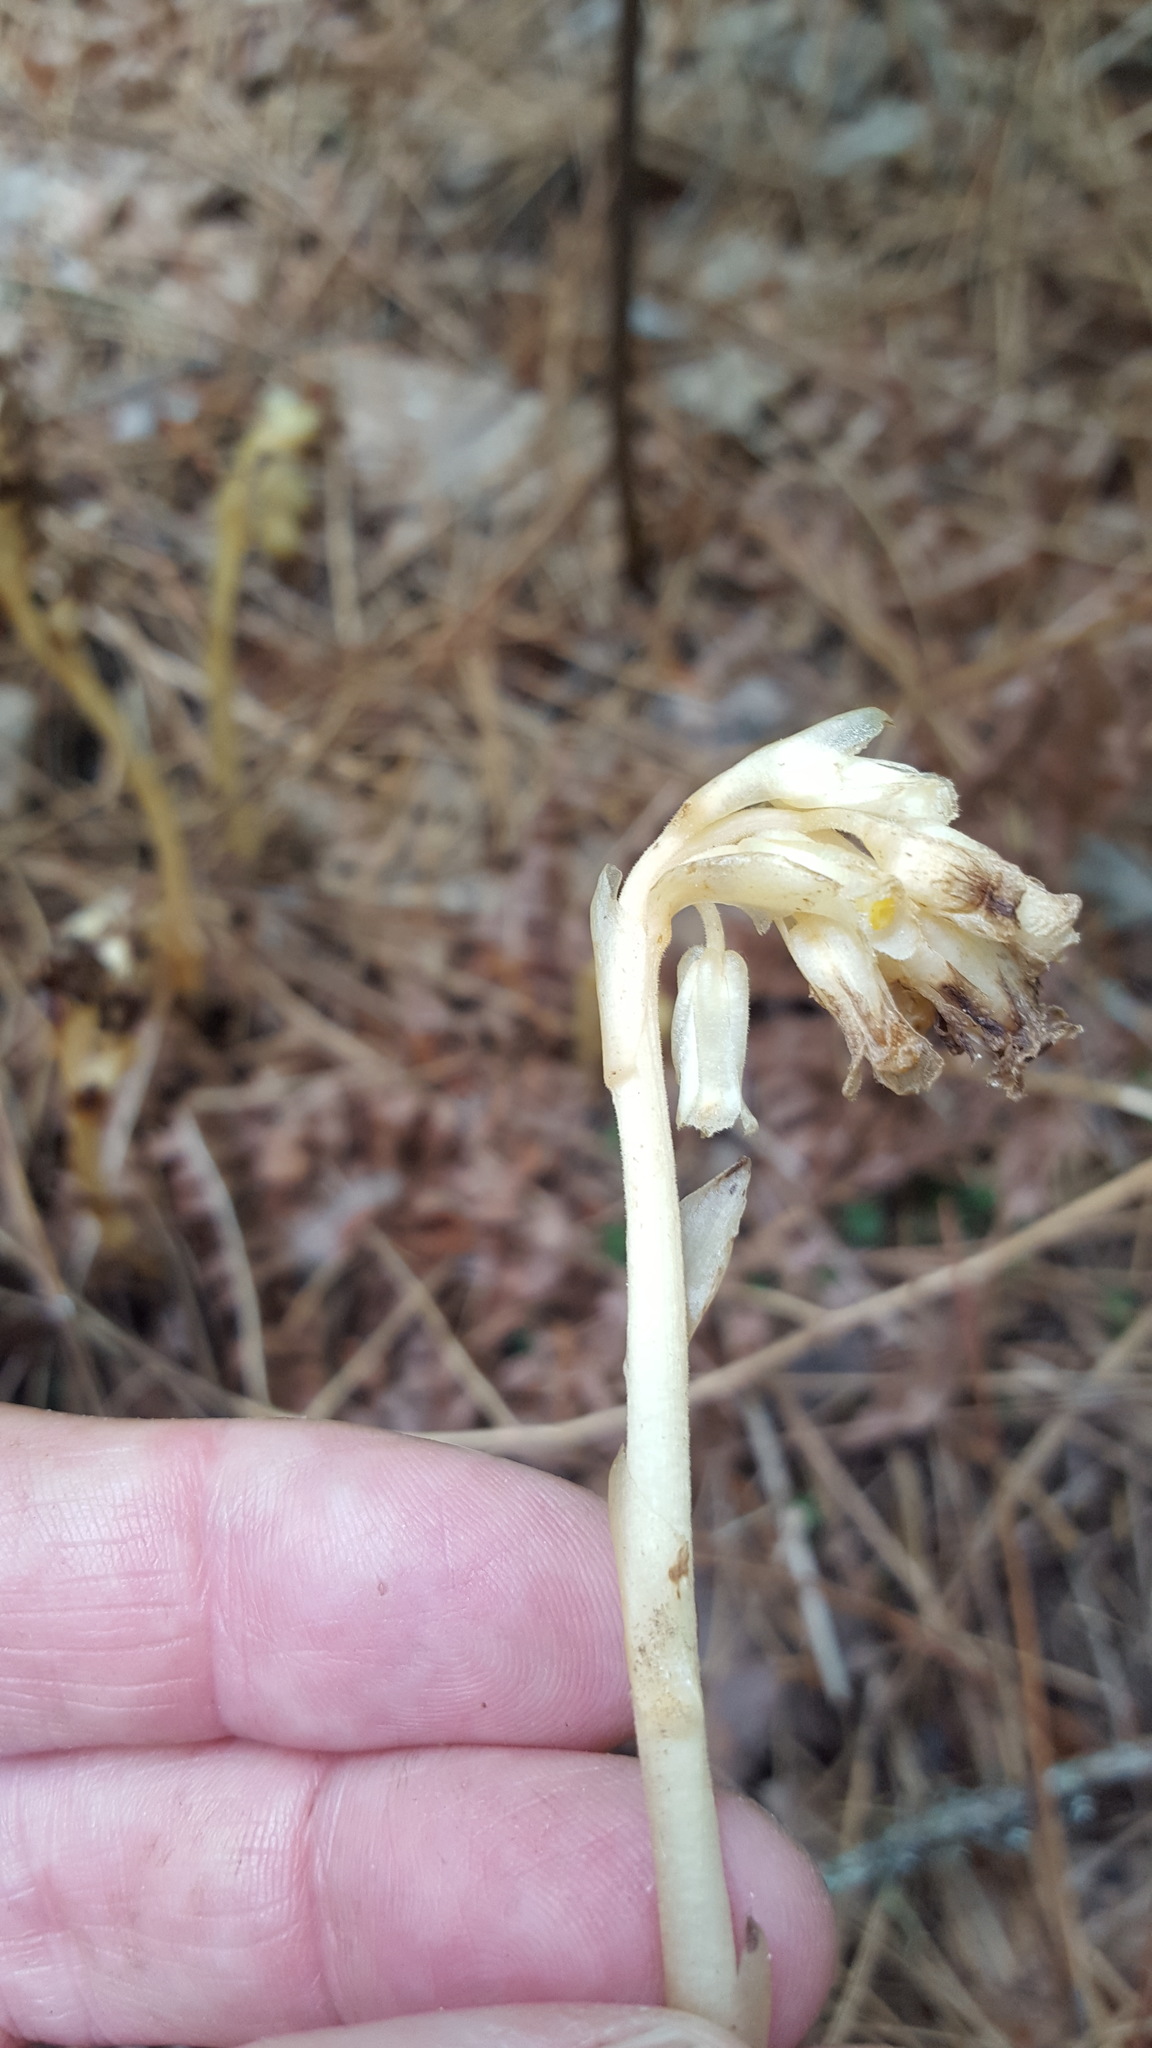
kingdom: Plantae
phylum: Tracheophyta
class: Magnoliopsida
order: Ericales
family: Ericaceae
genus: Hypopitys
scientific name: Hypopitys monotropa
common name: Yellow bird's-nest
